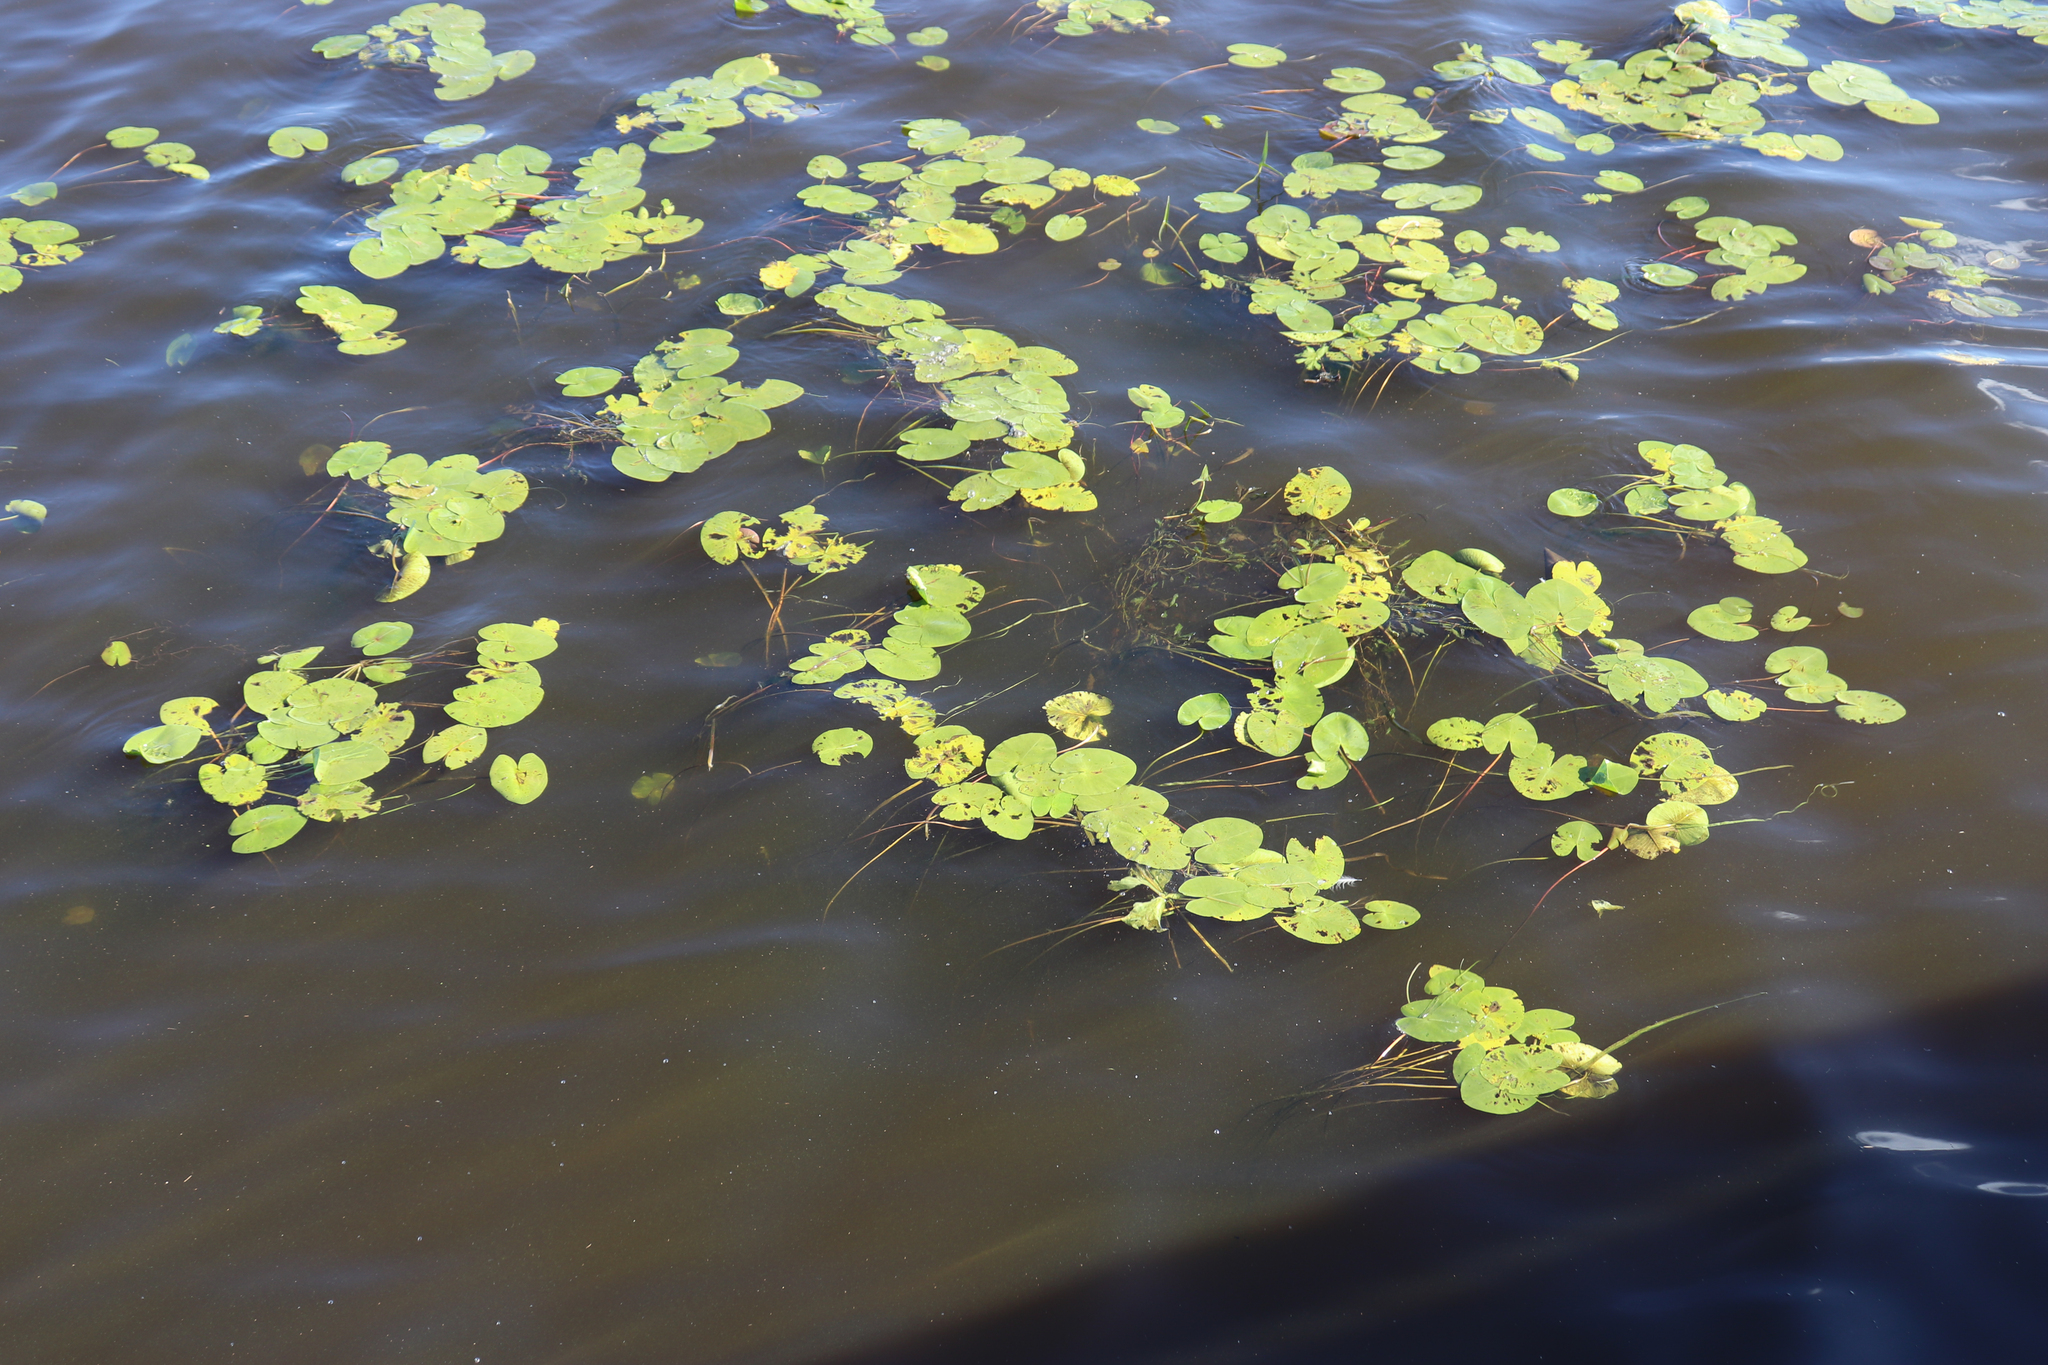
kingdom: Plantae
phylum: Tracheophyta
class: Magnoliopsida
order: Nymphaeales
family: Nymphaeaceae
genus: Nuphar
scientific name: Nuphar lutea
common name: Yellow water-lily
